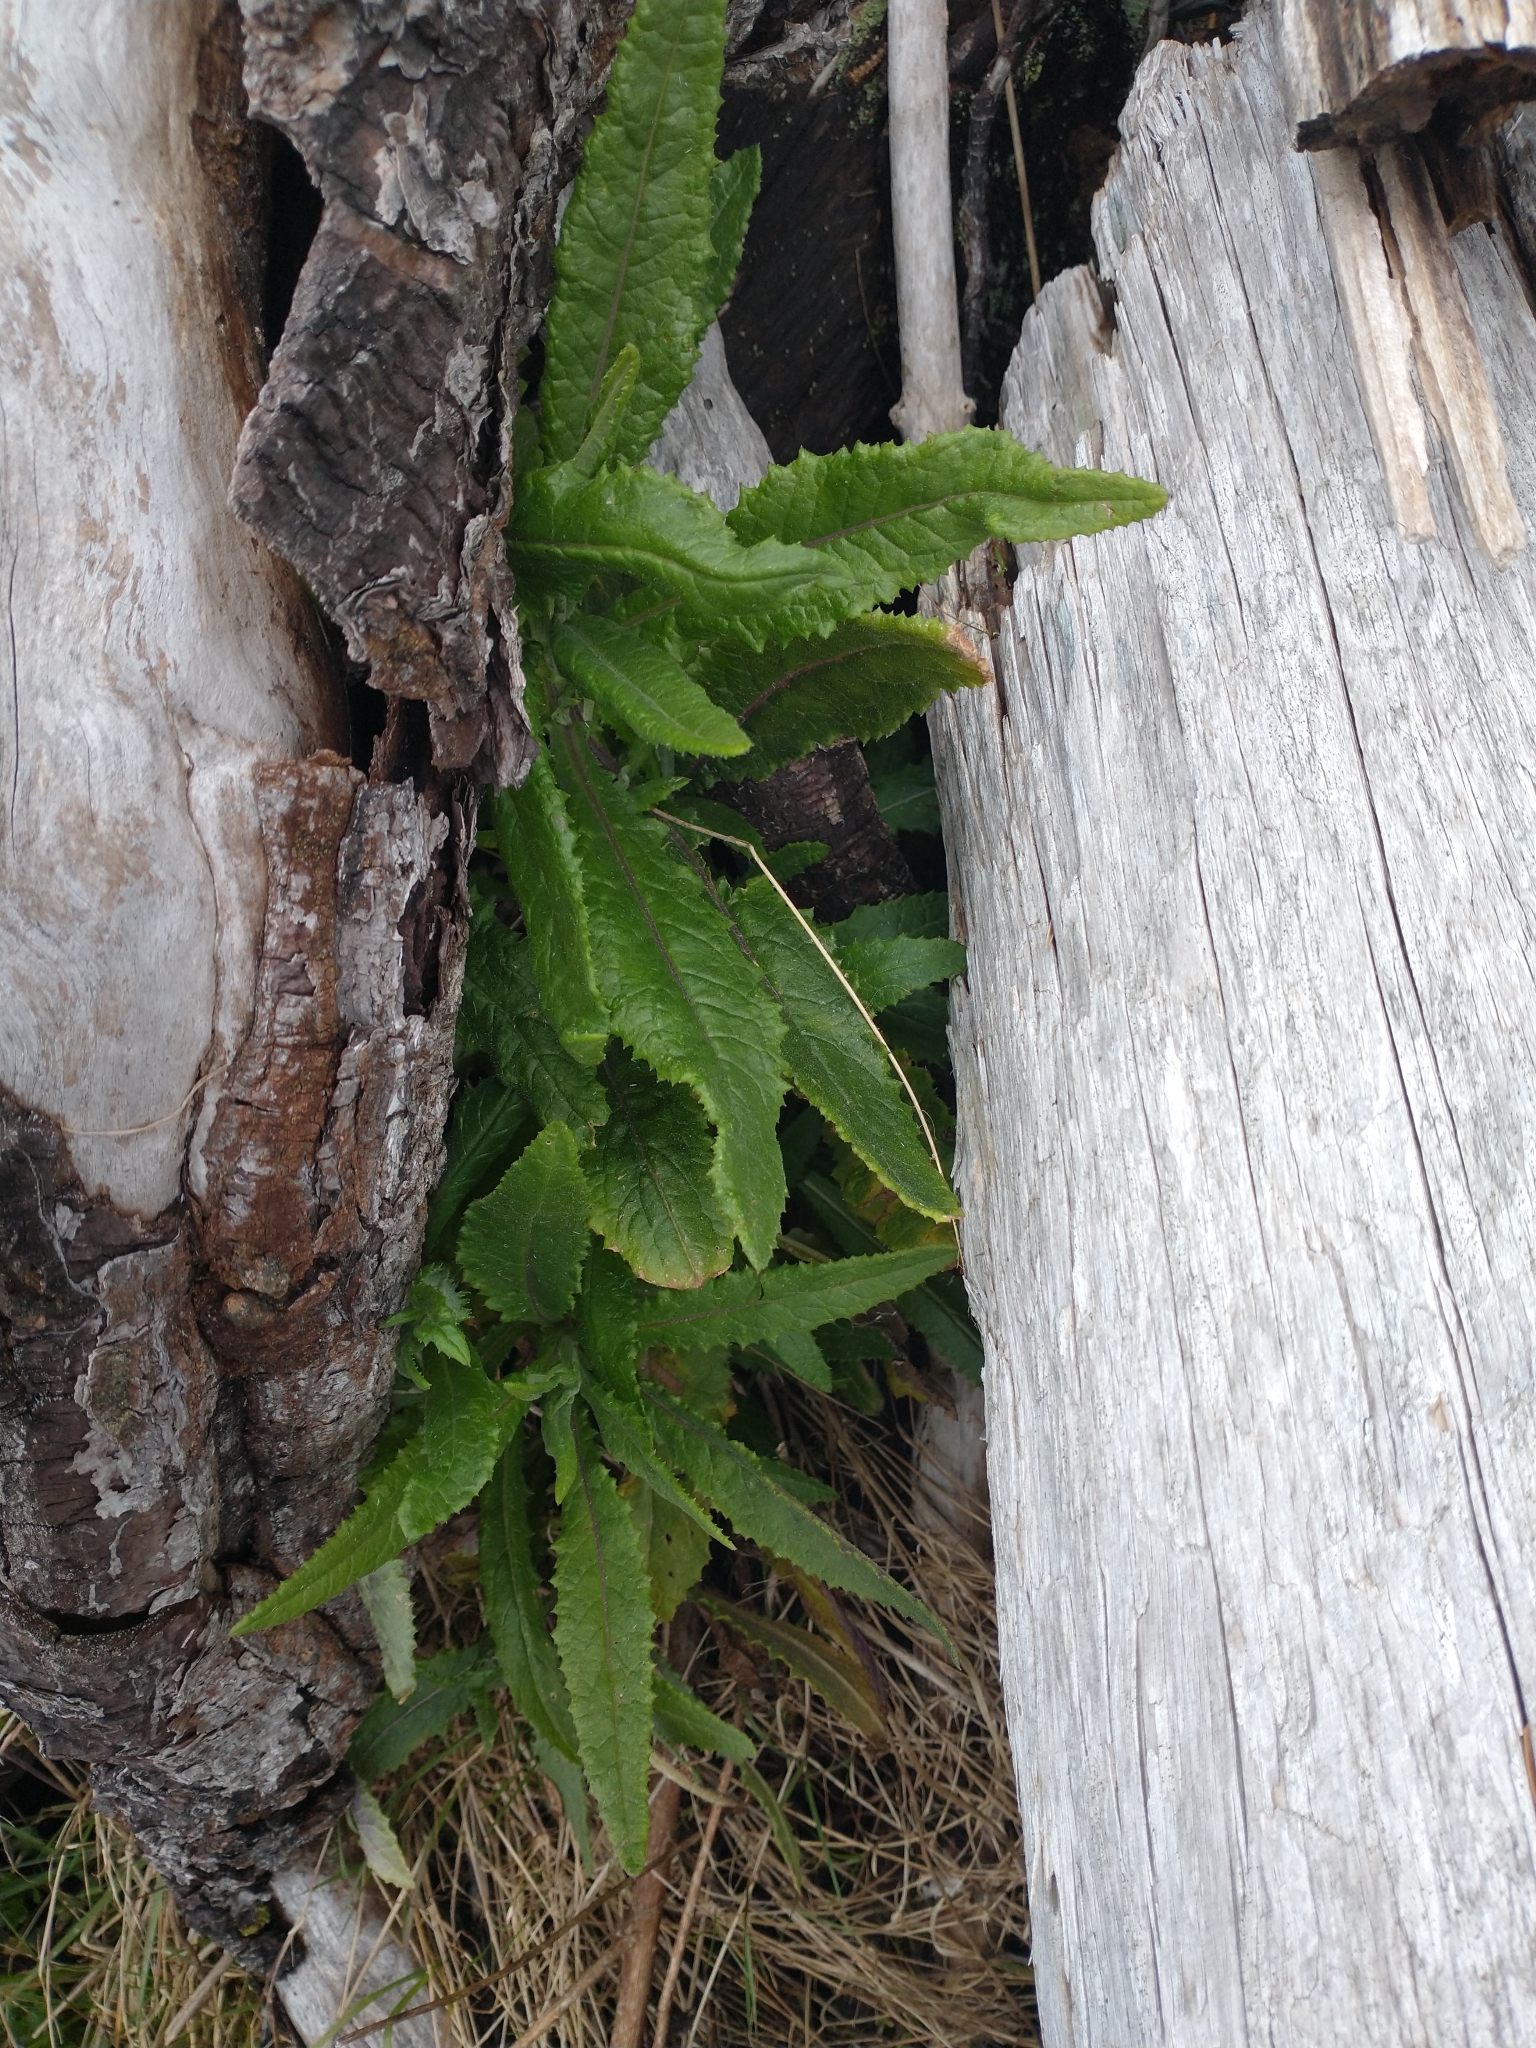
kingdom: Plantae
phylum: Tracheophyta
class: Magnoliopsida
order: Asterales
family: Asteraceae
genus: Senecio
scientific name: Senecio minimus
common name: Toothed fireweed
